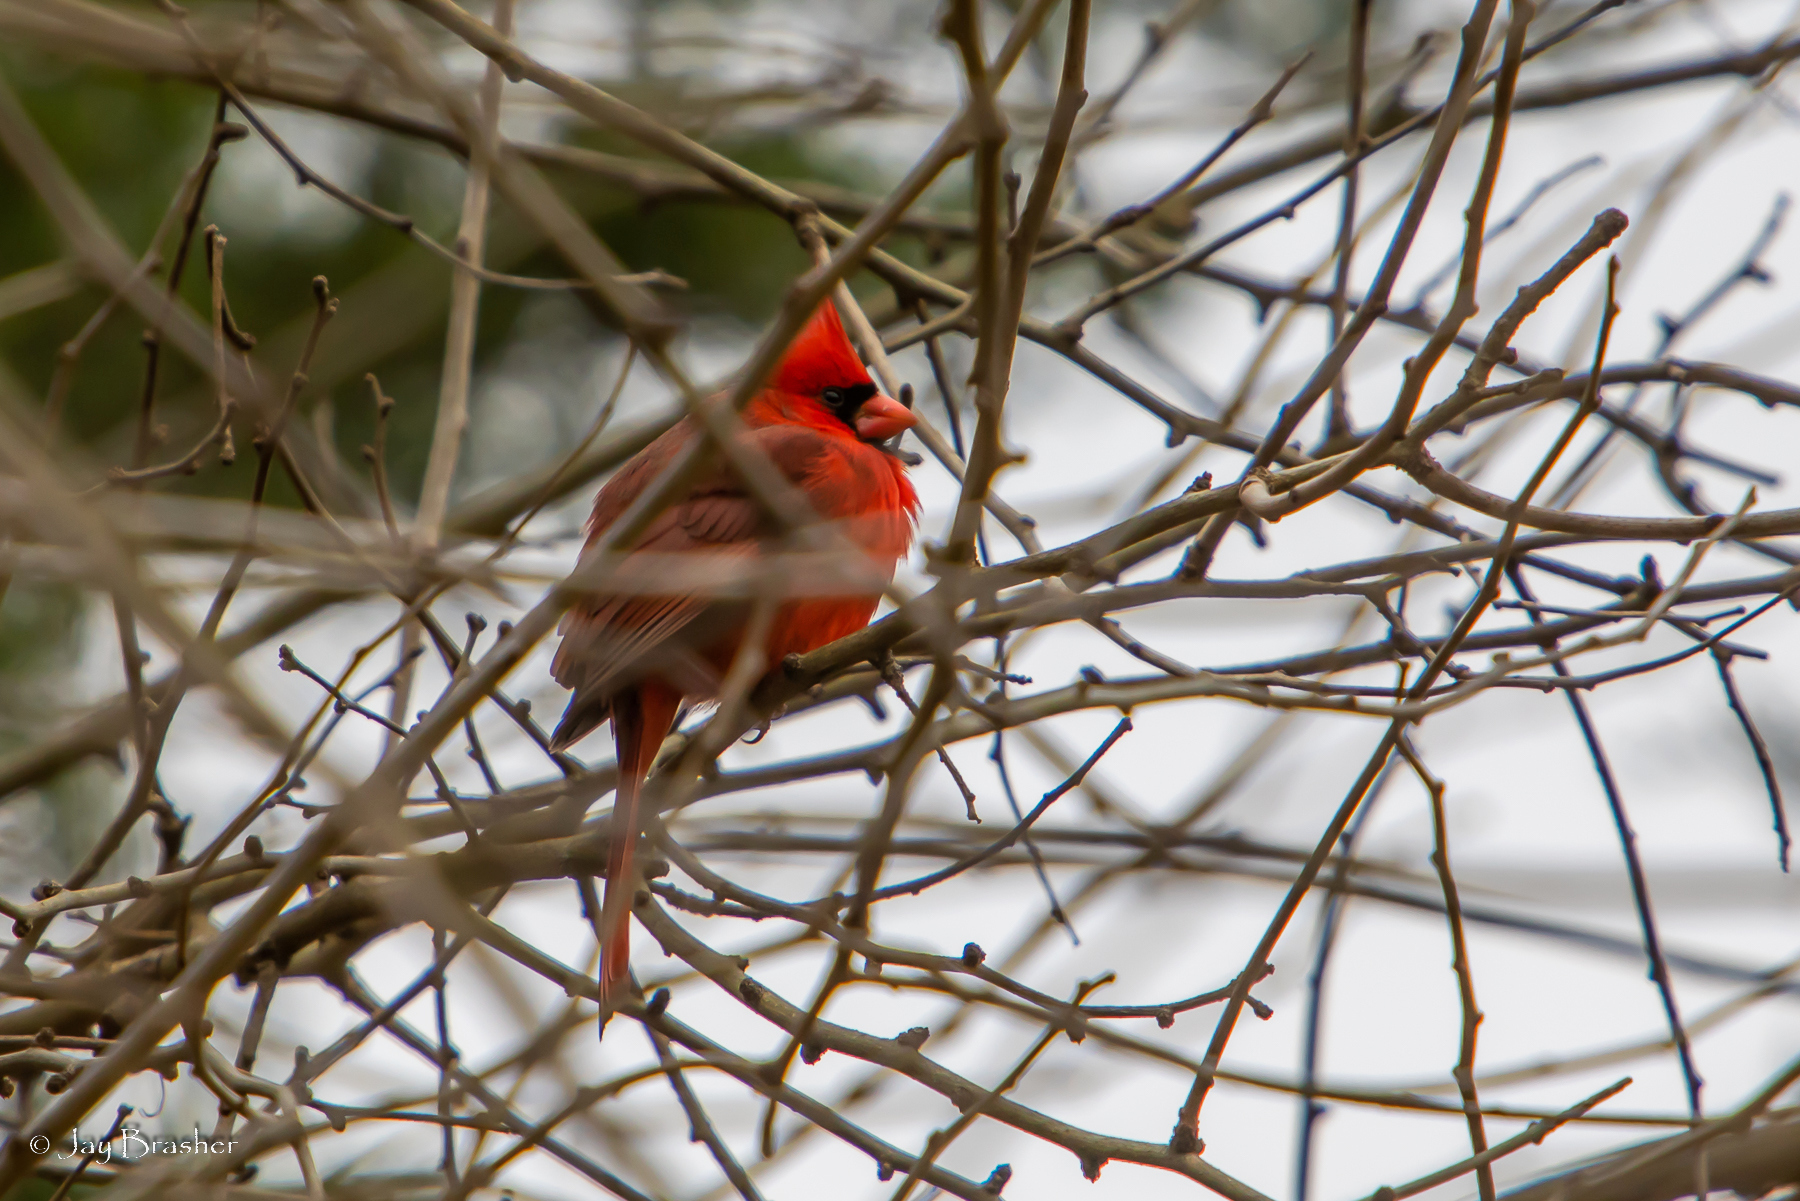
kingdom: Animalia
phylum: Chordata
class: Aves
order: Passeriformes
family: Cardinalidae
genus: Cardinalis
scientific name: Cardinalis cardinalis
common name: Northern cardinal
